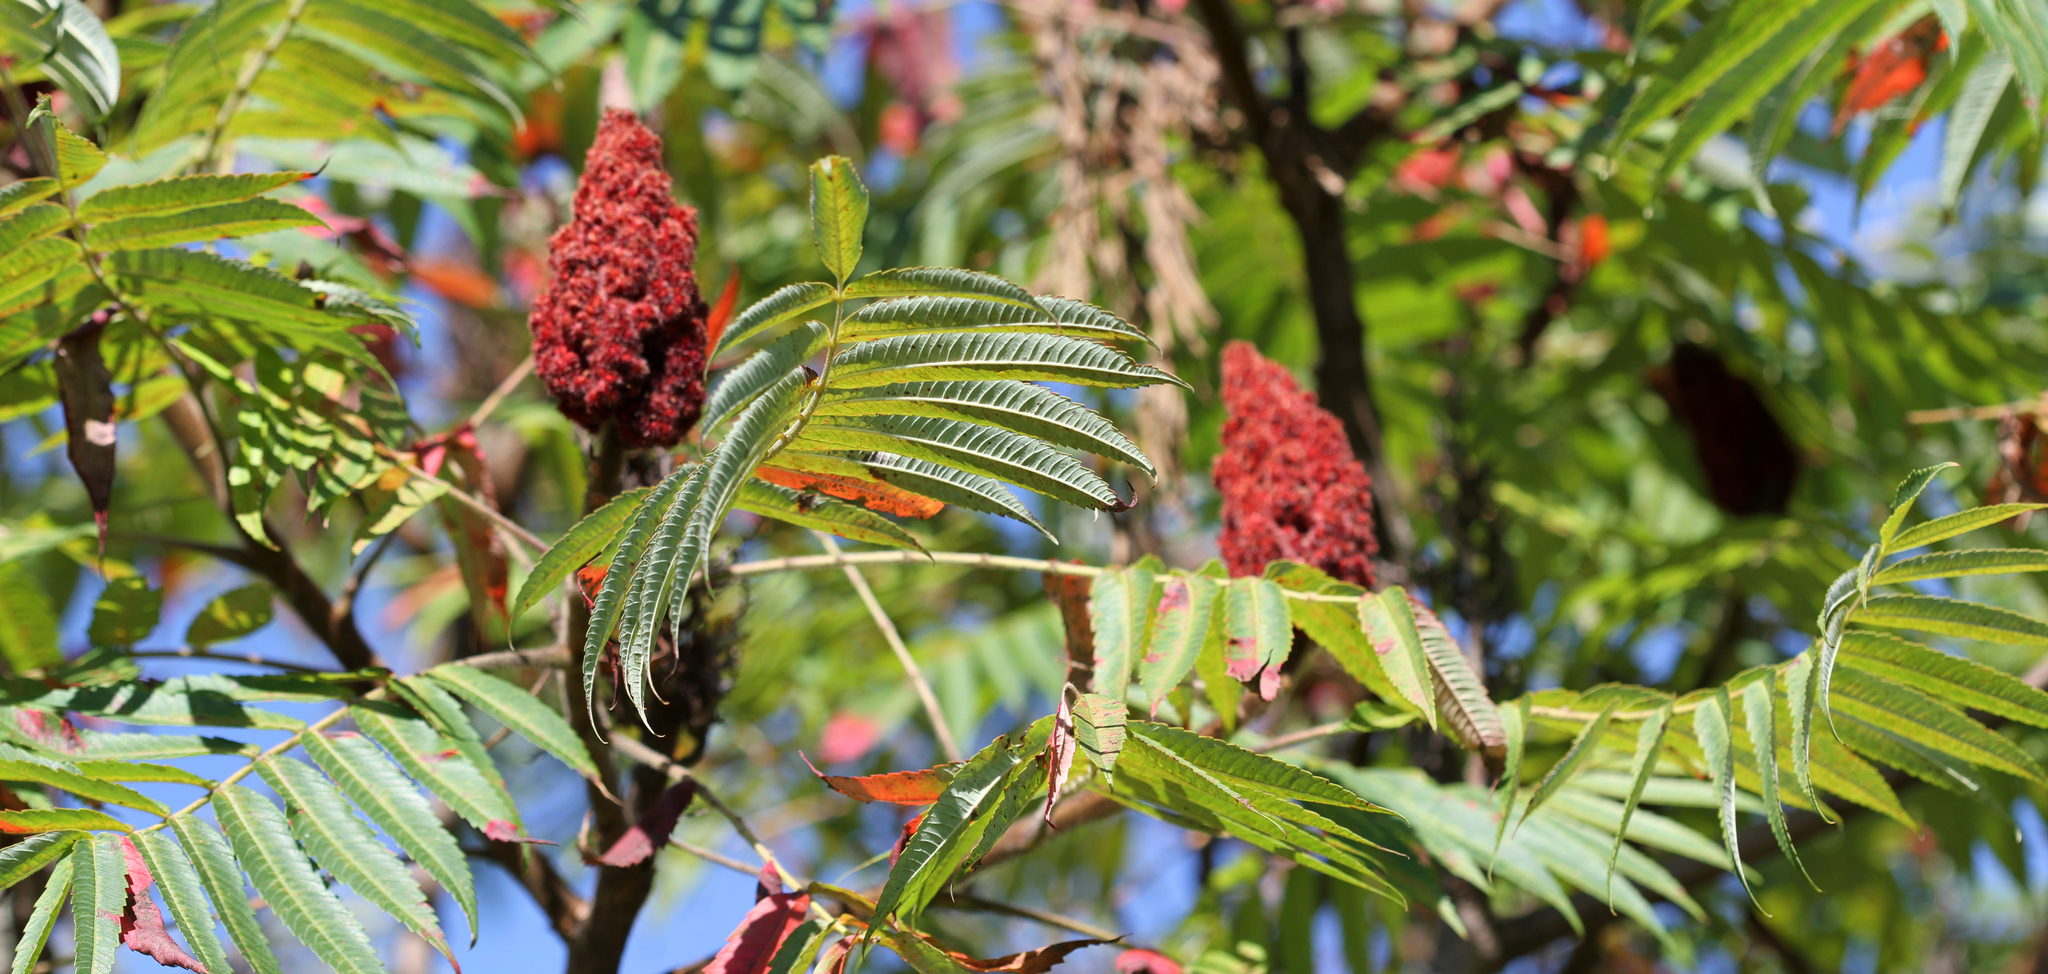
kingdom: Plantae
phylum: Tracheophyta
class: Magnoliopsida
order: Sapindales
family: Anacardiaceae
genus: Rhus
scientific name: Rhus typhina
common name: Staghorn sumac
